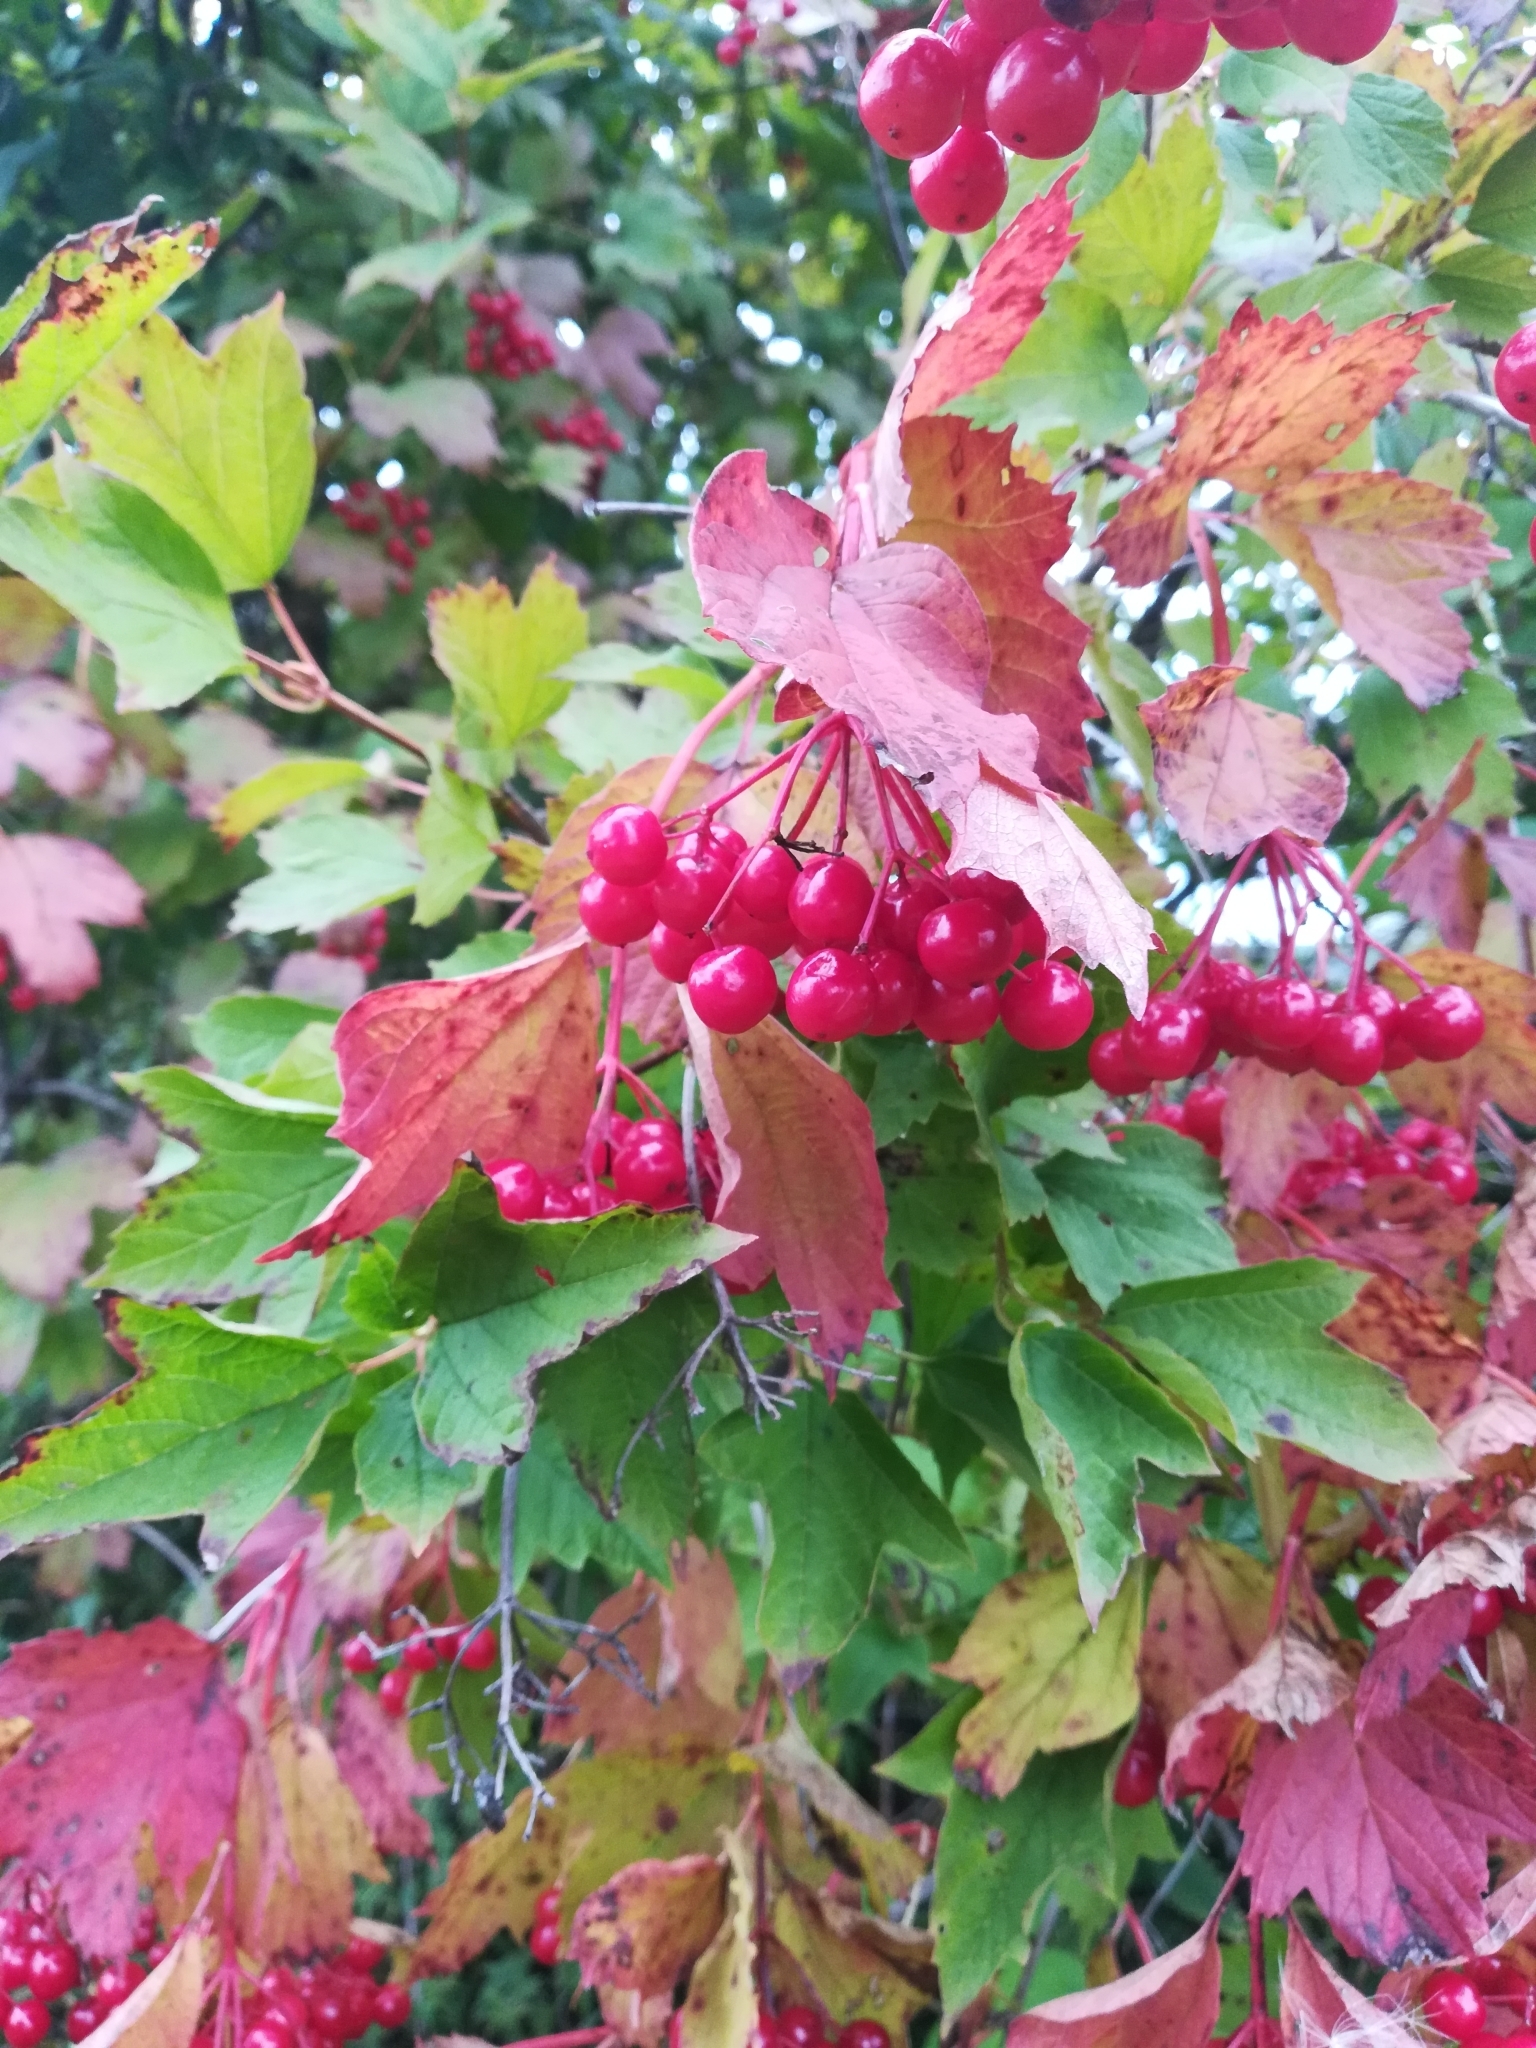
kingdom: Plantae
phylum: Tracheophyta
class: Magnoliopsida
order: Dipsacales
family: Viburnaceae
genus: Viburnum
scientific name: Viburnum opulus
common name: Guelder-rose
